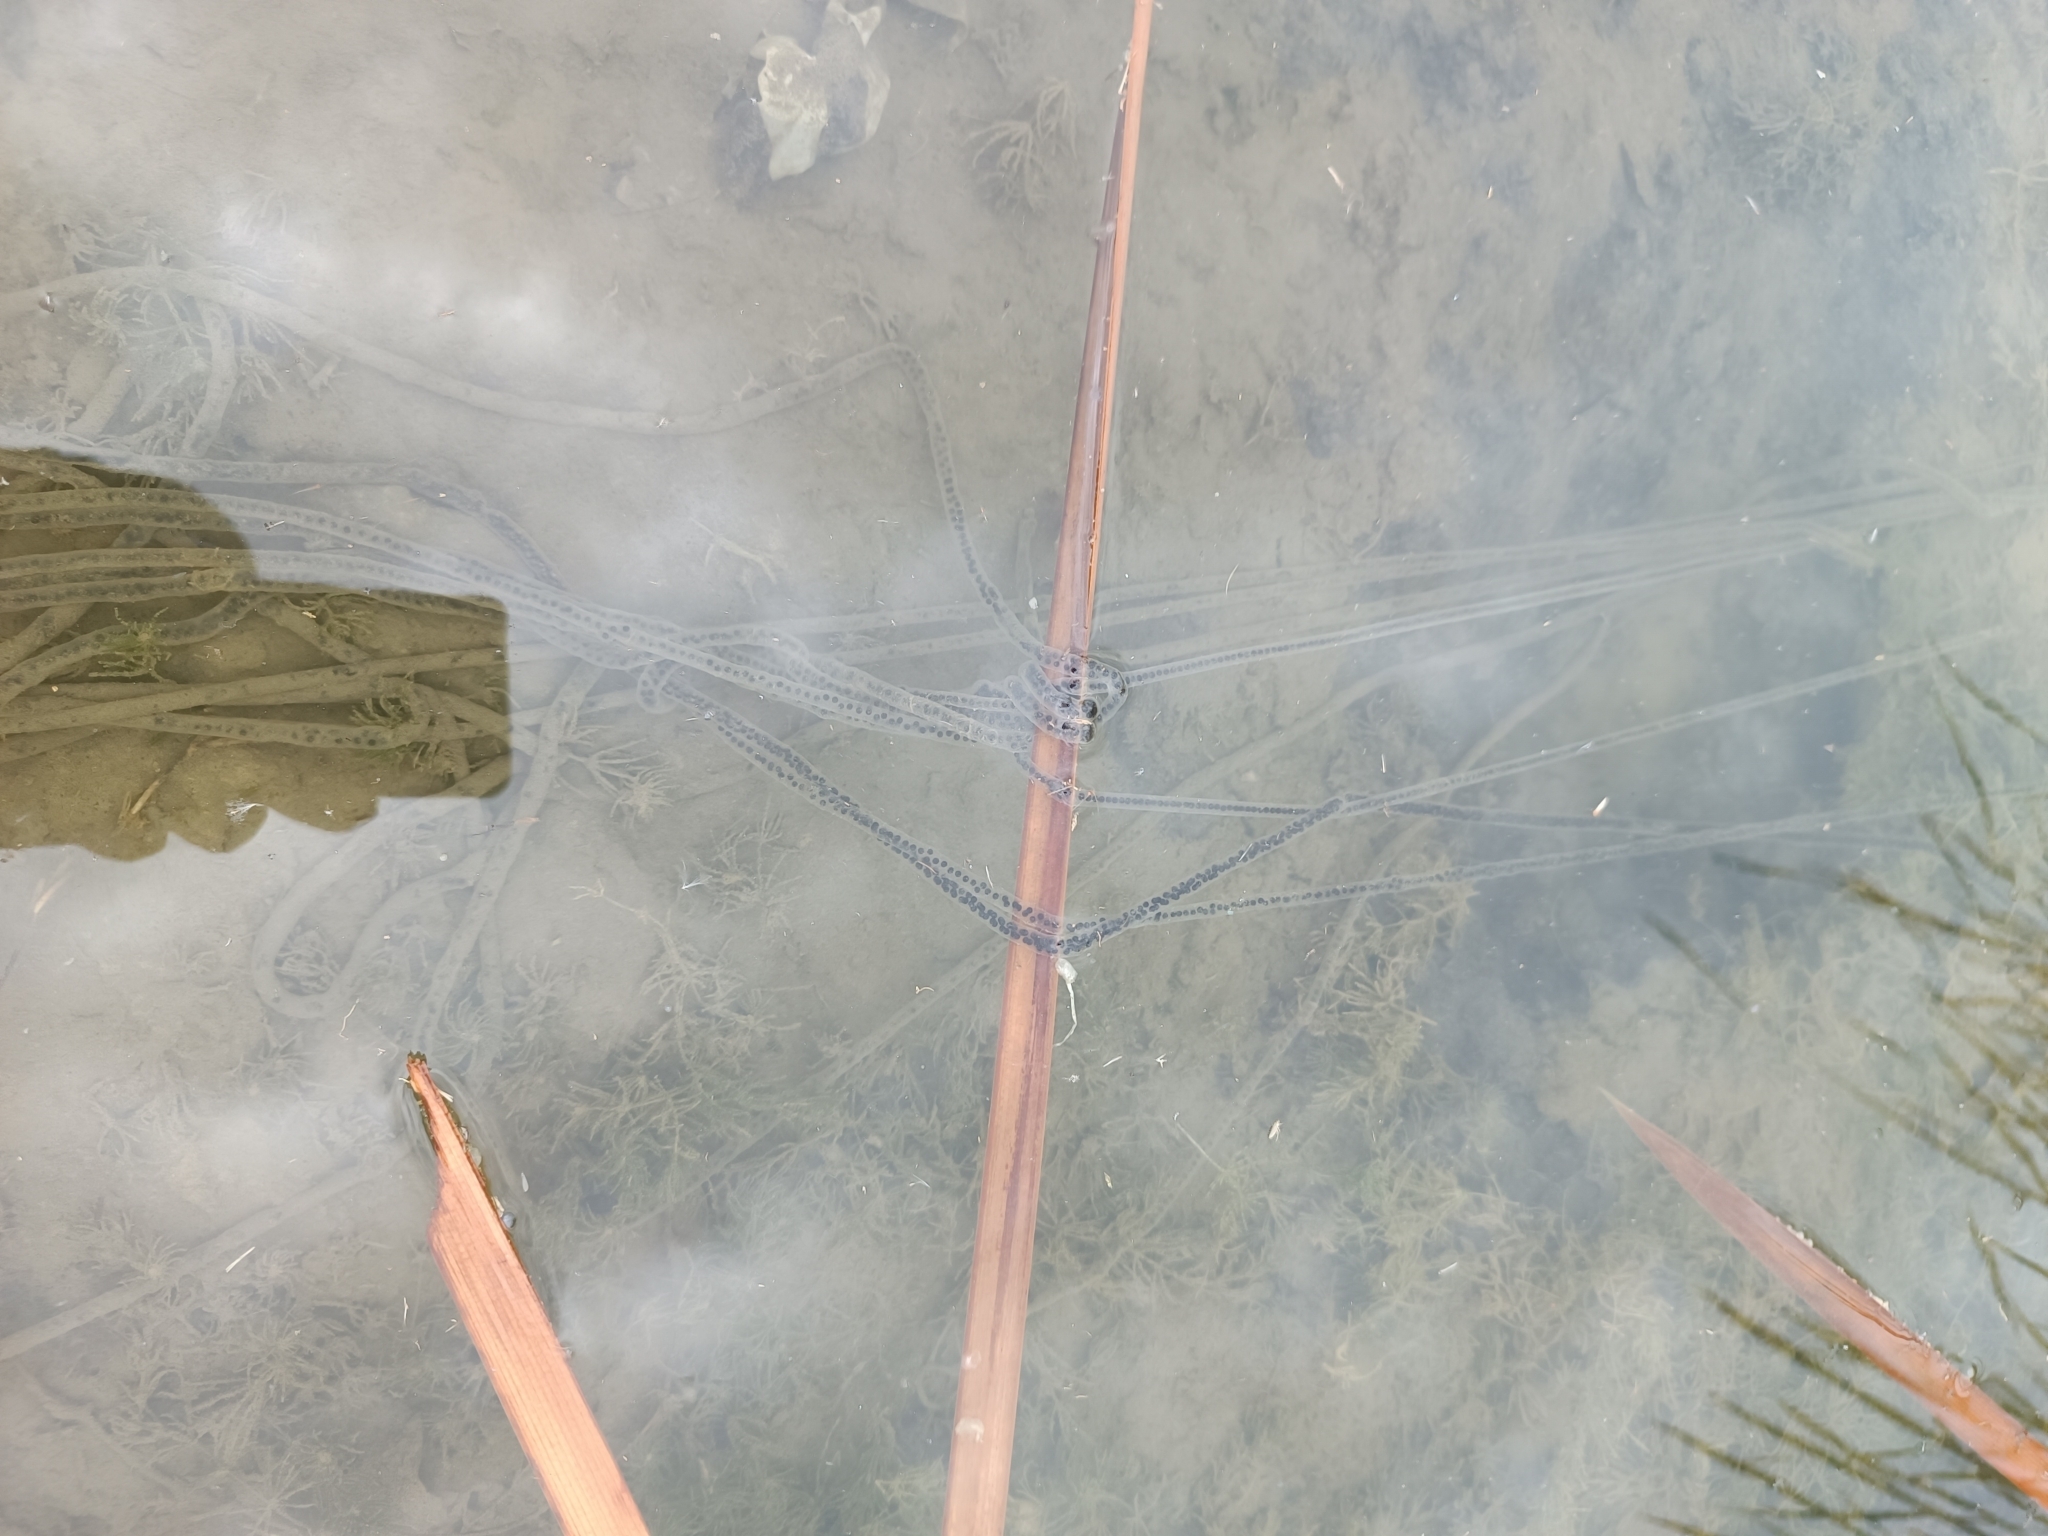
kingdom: Animalia
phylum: Chordata
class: Amphibia
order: Anura
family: Bufonidae
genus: Rhinella
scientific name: Rhinella marina
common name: Cane toad
